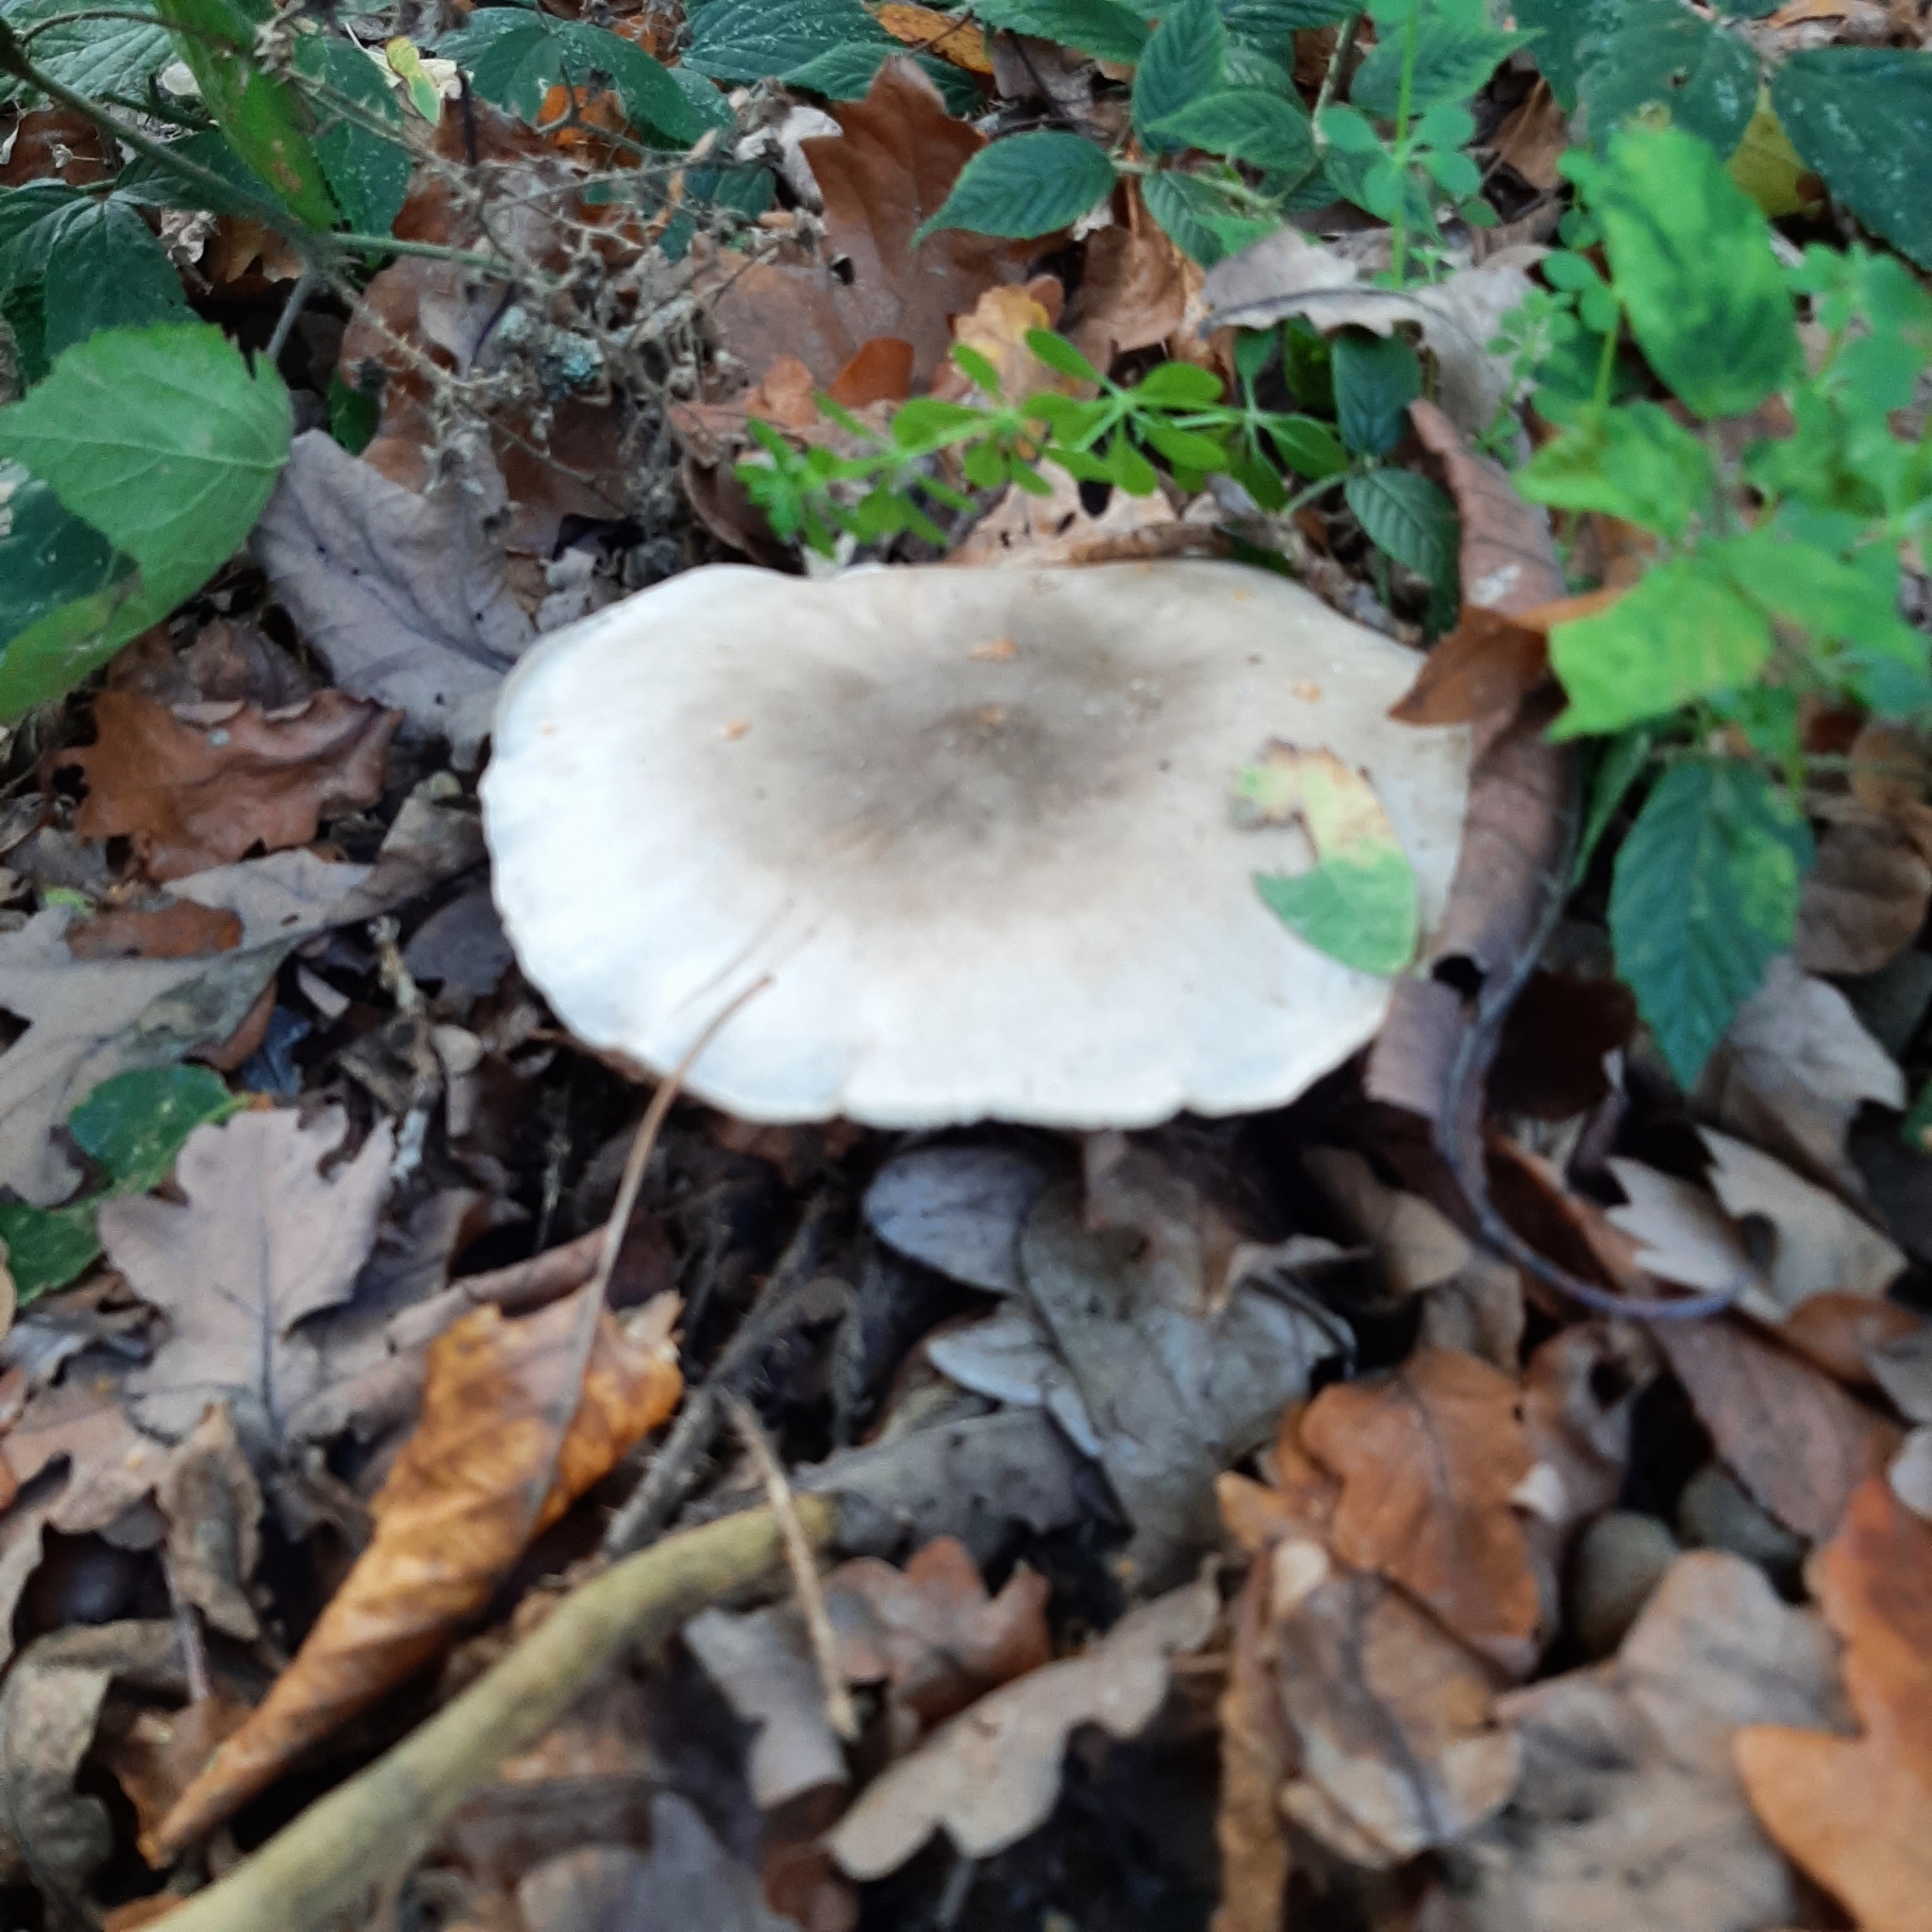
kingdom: Fungi
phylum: Basidiomycota
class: Agaricomycetes
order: Agaricales
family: Tricholomataceae
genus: Clitocybe
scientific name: Clitocybe nebularis
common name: Clouded agaric
